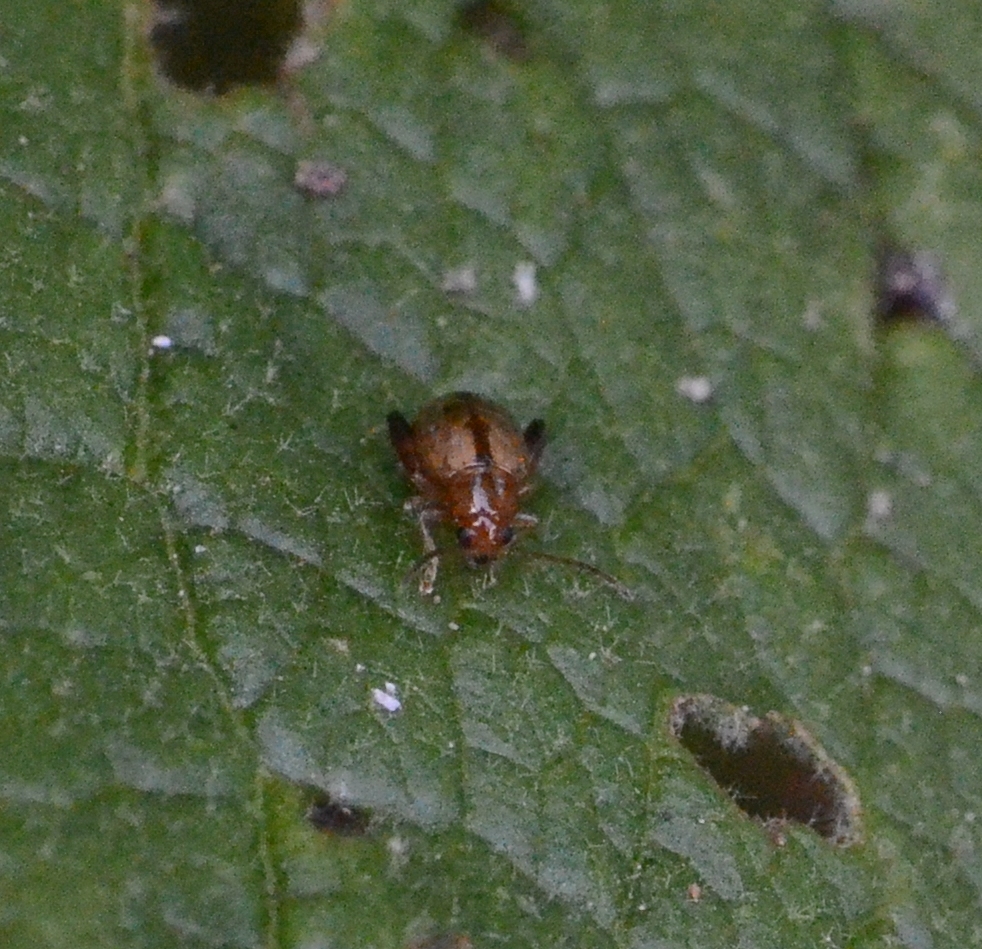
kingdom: Animalia
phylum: Arthropoda
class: Insecta
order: Coleoptera
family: Chrysomelidae
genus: Longitarsus
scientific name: Longitarsus tabidus
